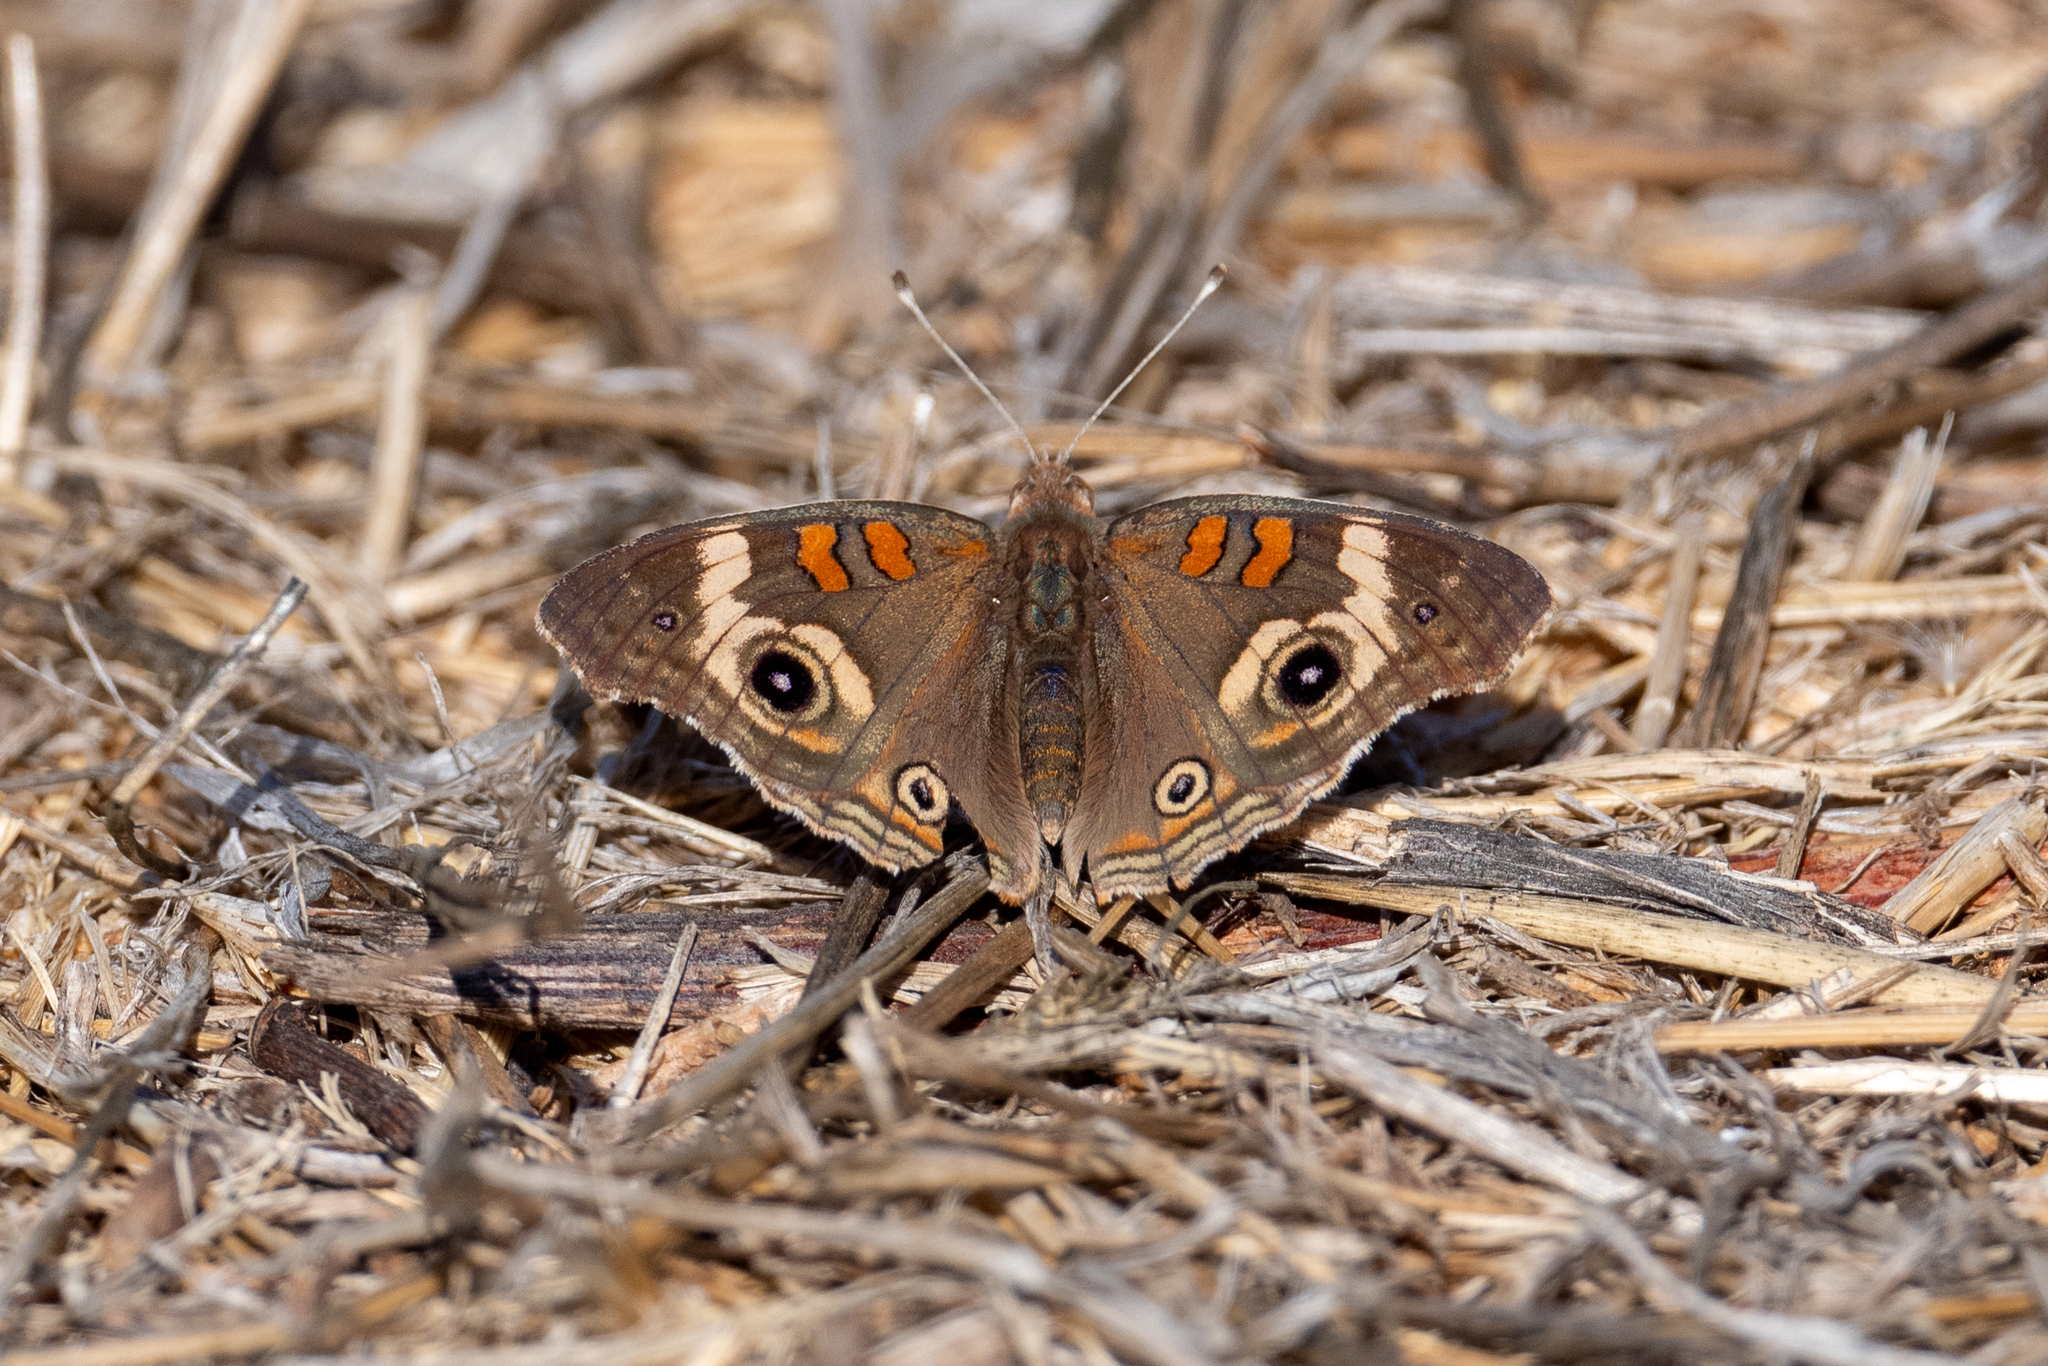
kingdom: Animalia
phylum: Arthropoda
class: Insecta
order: Lepidoptera
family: Nymphalidae
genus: Junonia
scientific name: Junonia grisea
